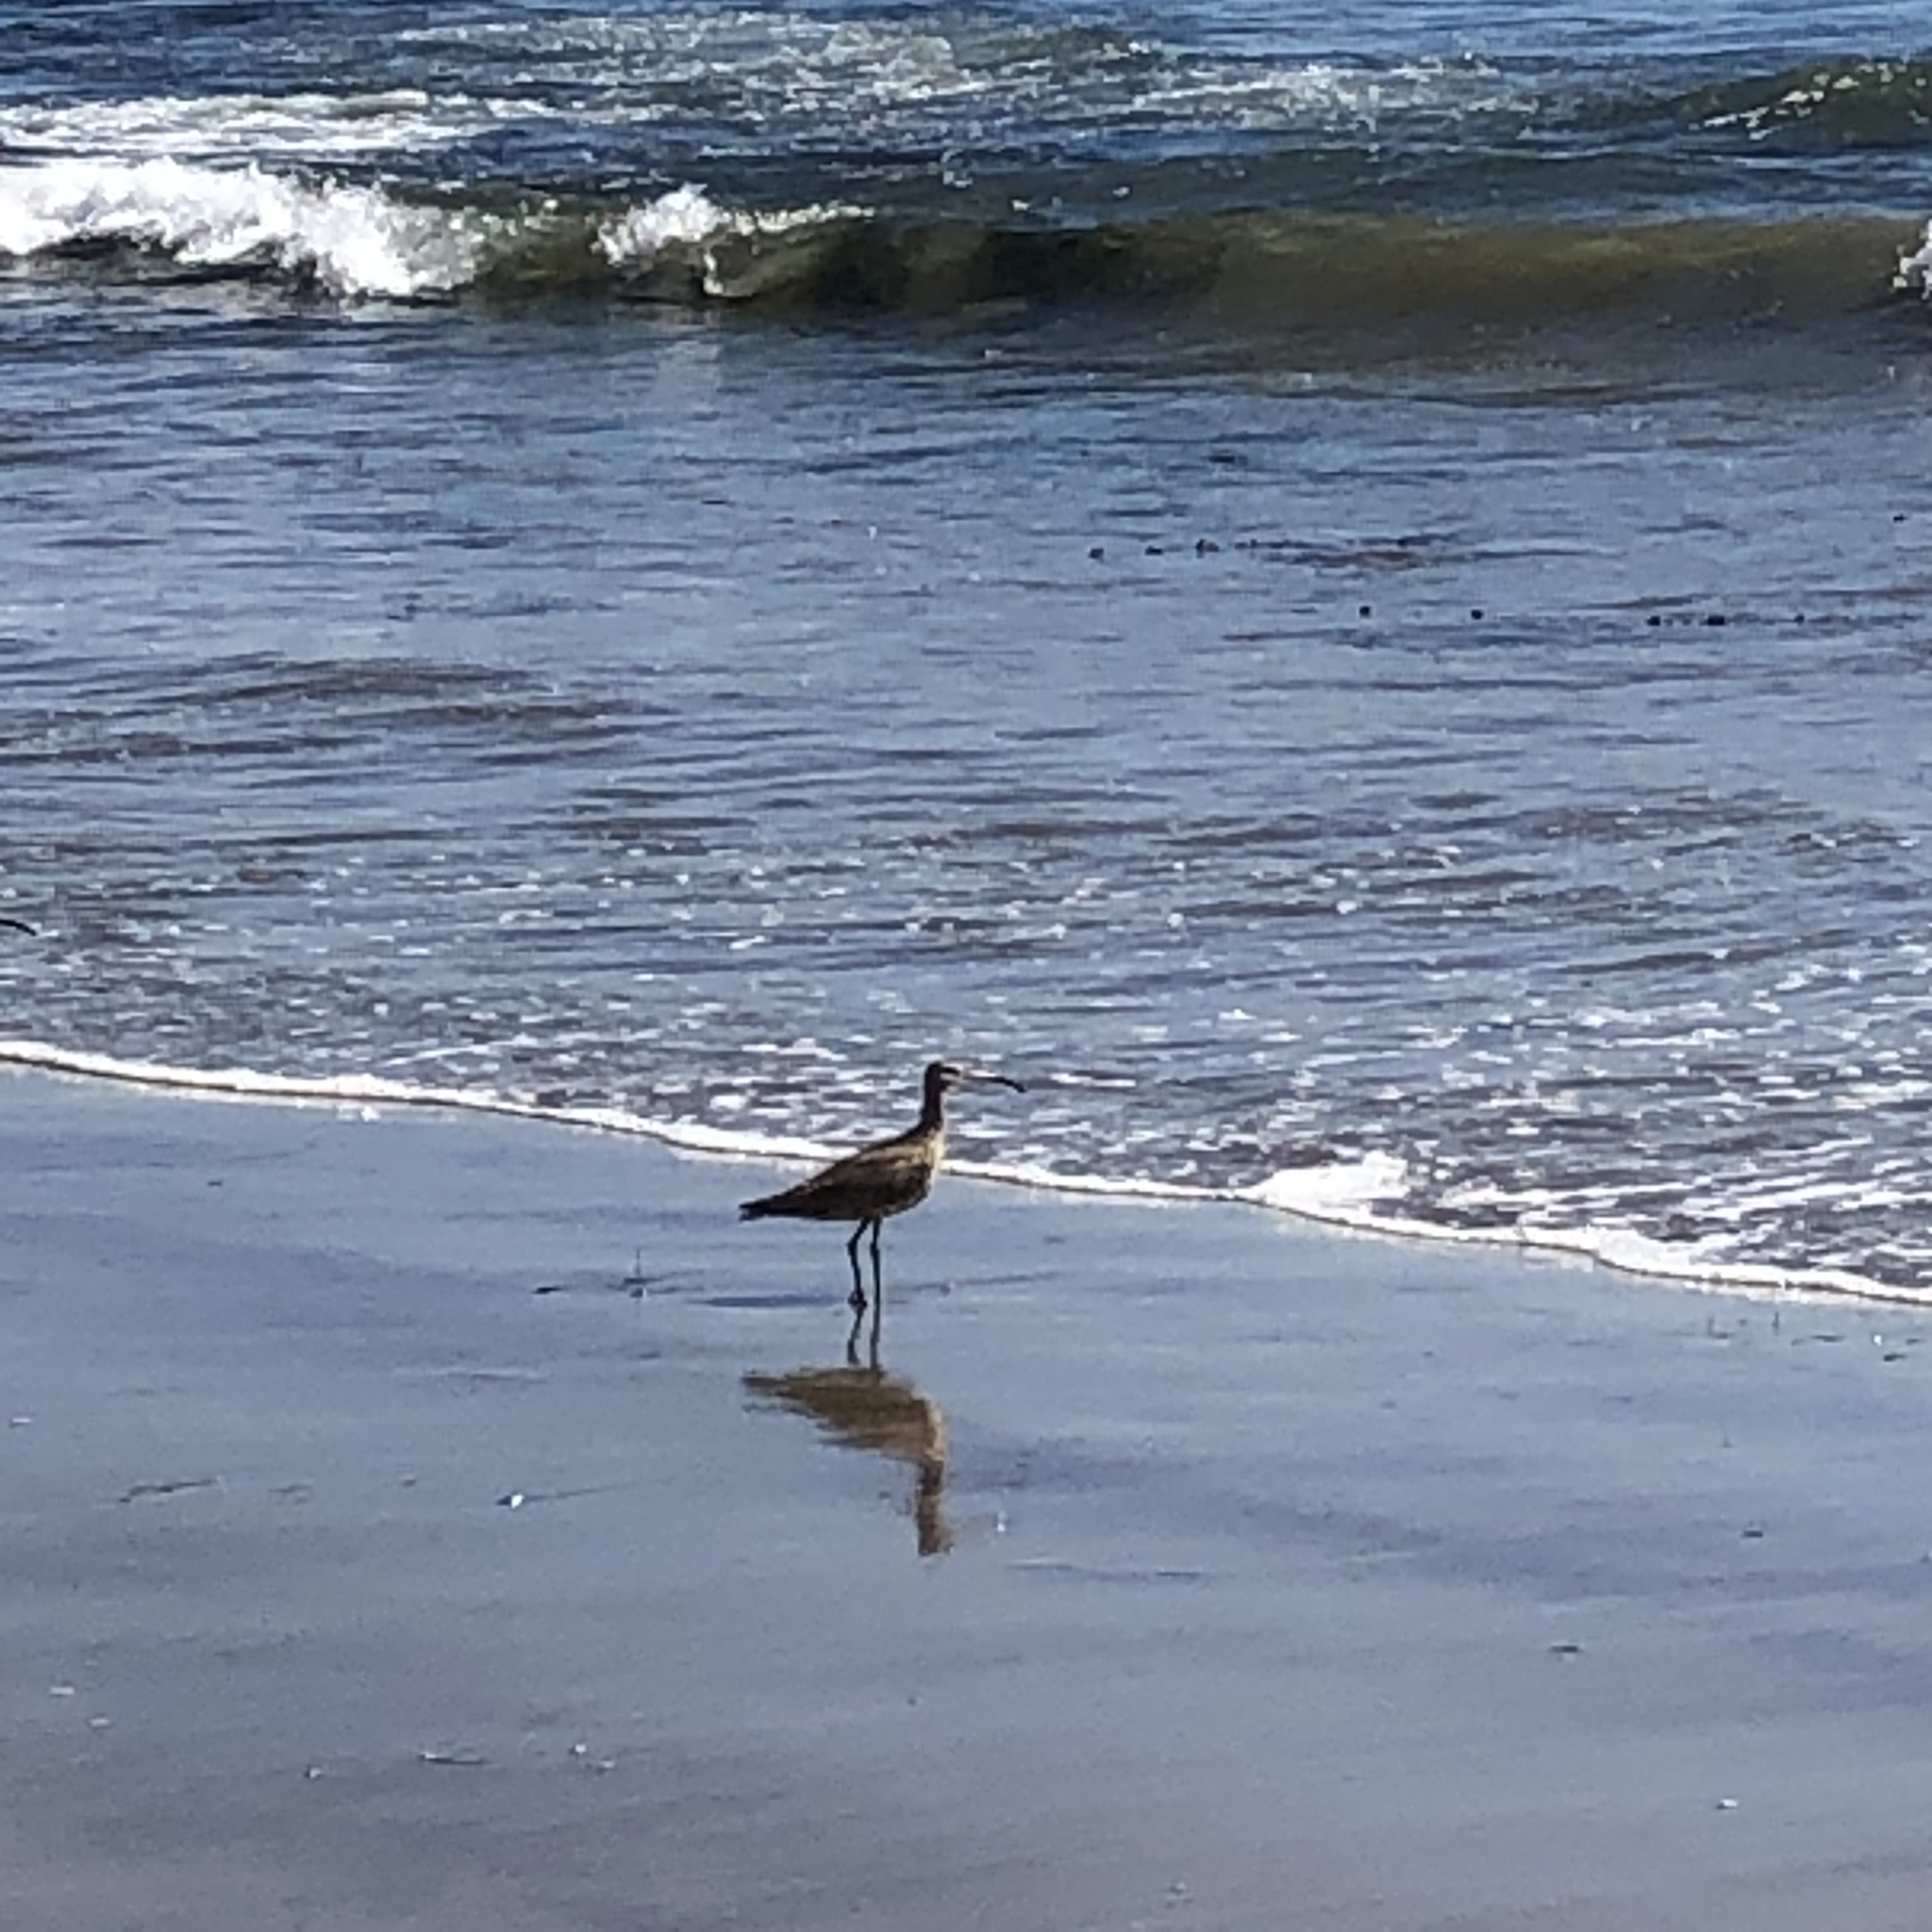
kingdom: Animalia
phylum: Chordata
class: Aves
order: Charadriiformes
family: Scolopacidae
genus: Numenius
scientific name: Numenius phaeopus
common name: Whimbrel
